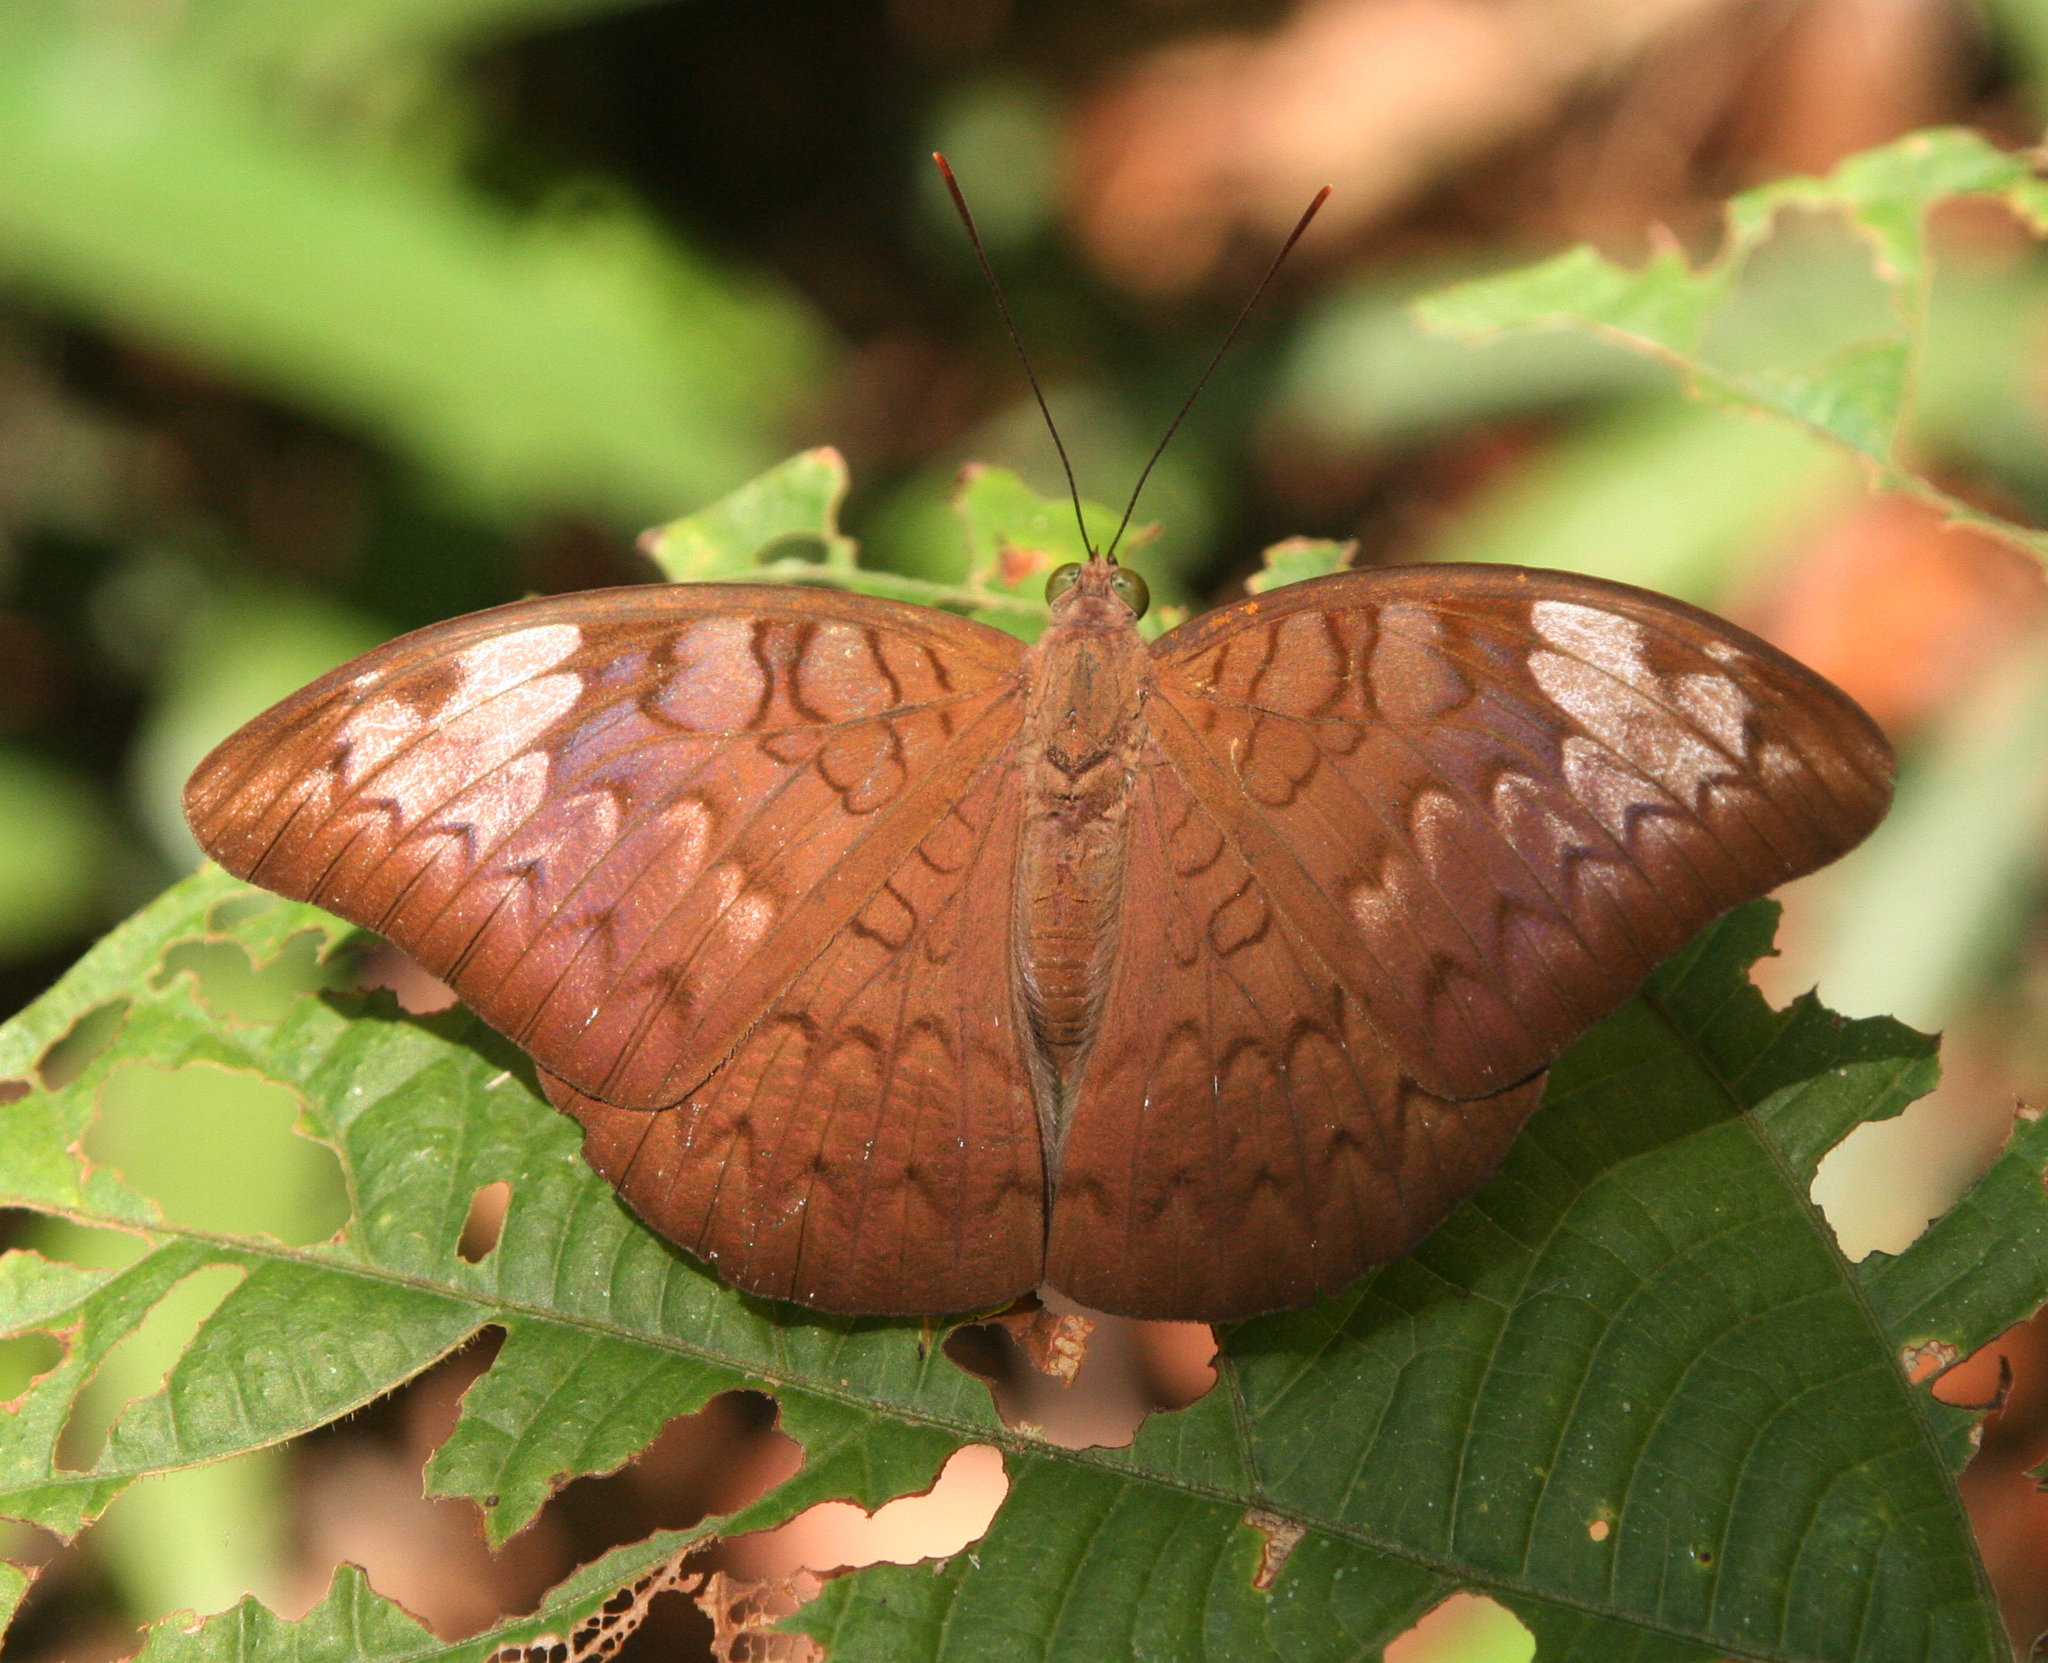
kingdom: Animalia
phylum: Arthropoda
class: Insecta
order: Lepidoptera
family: Nymphalidae
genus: Tanaecia
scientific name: Tanaecia jahnu
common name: Plain earl
